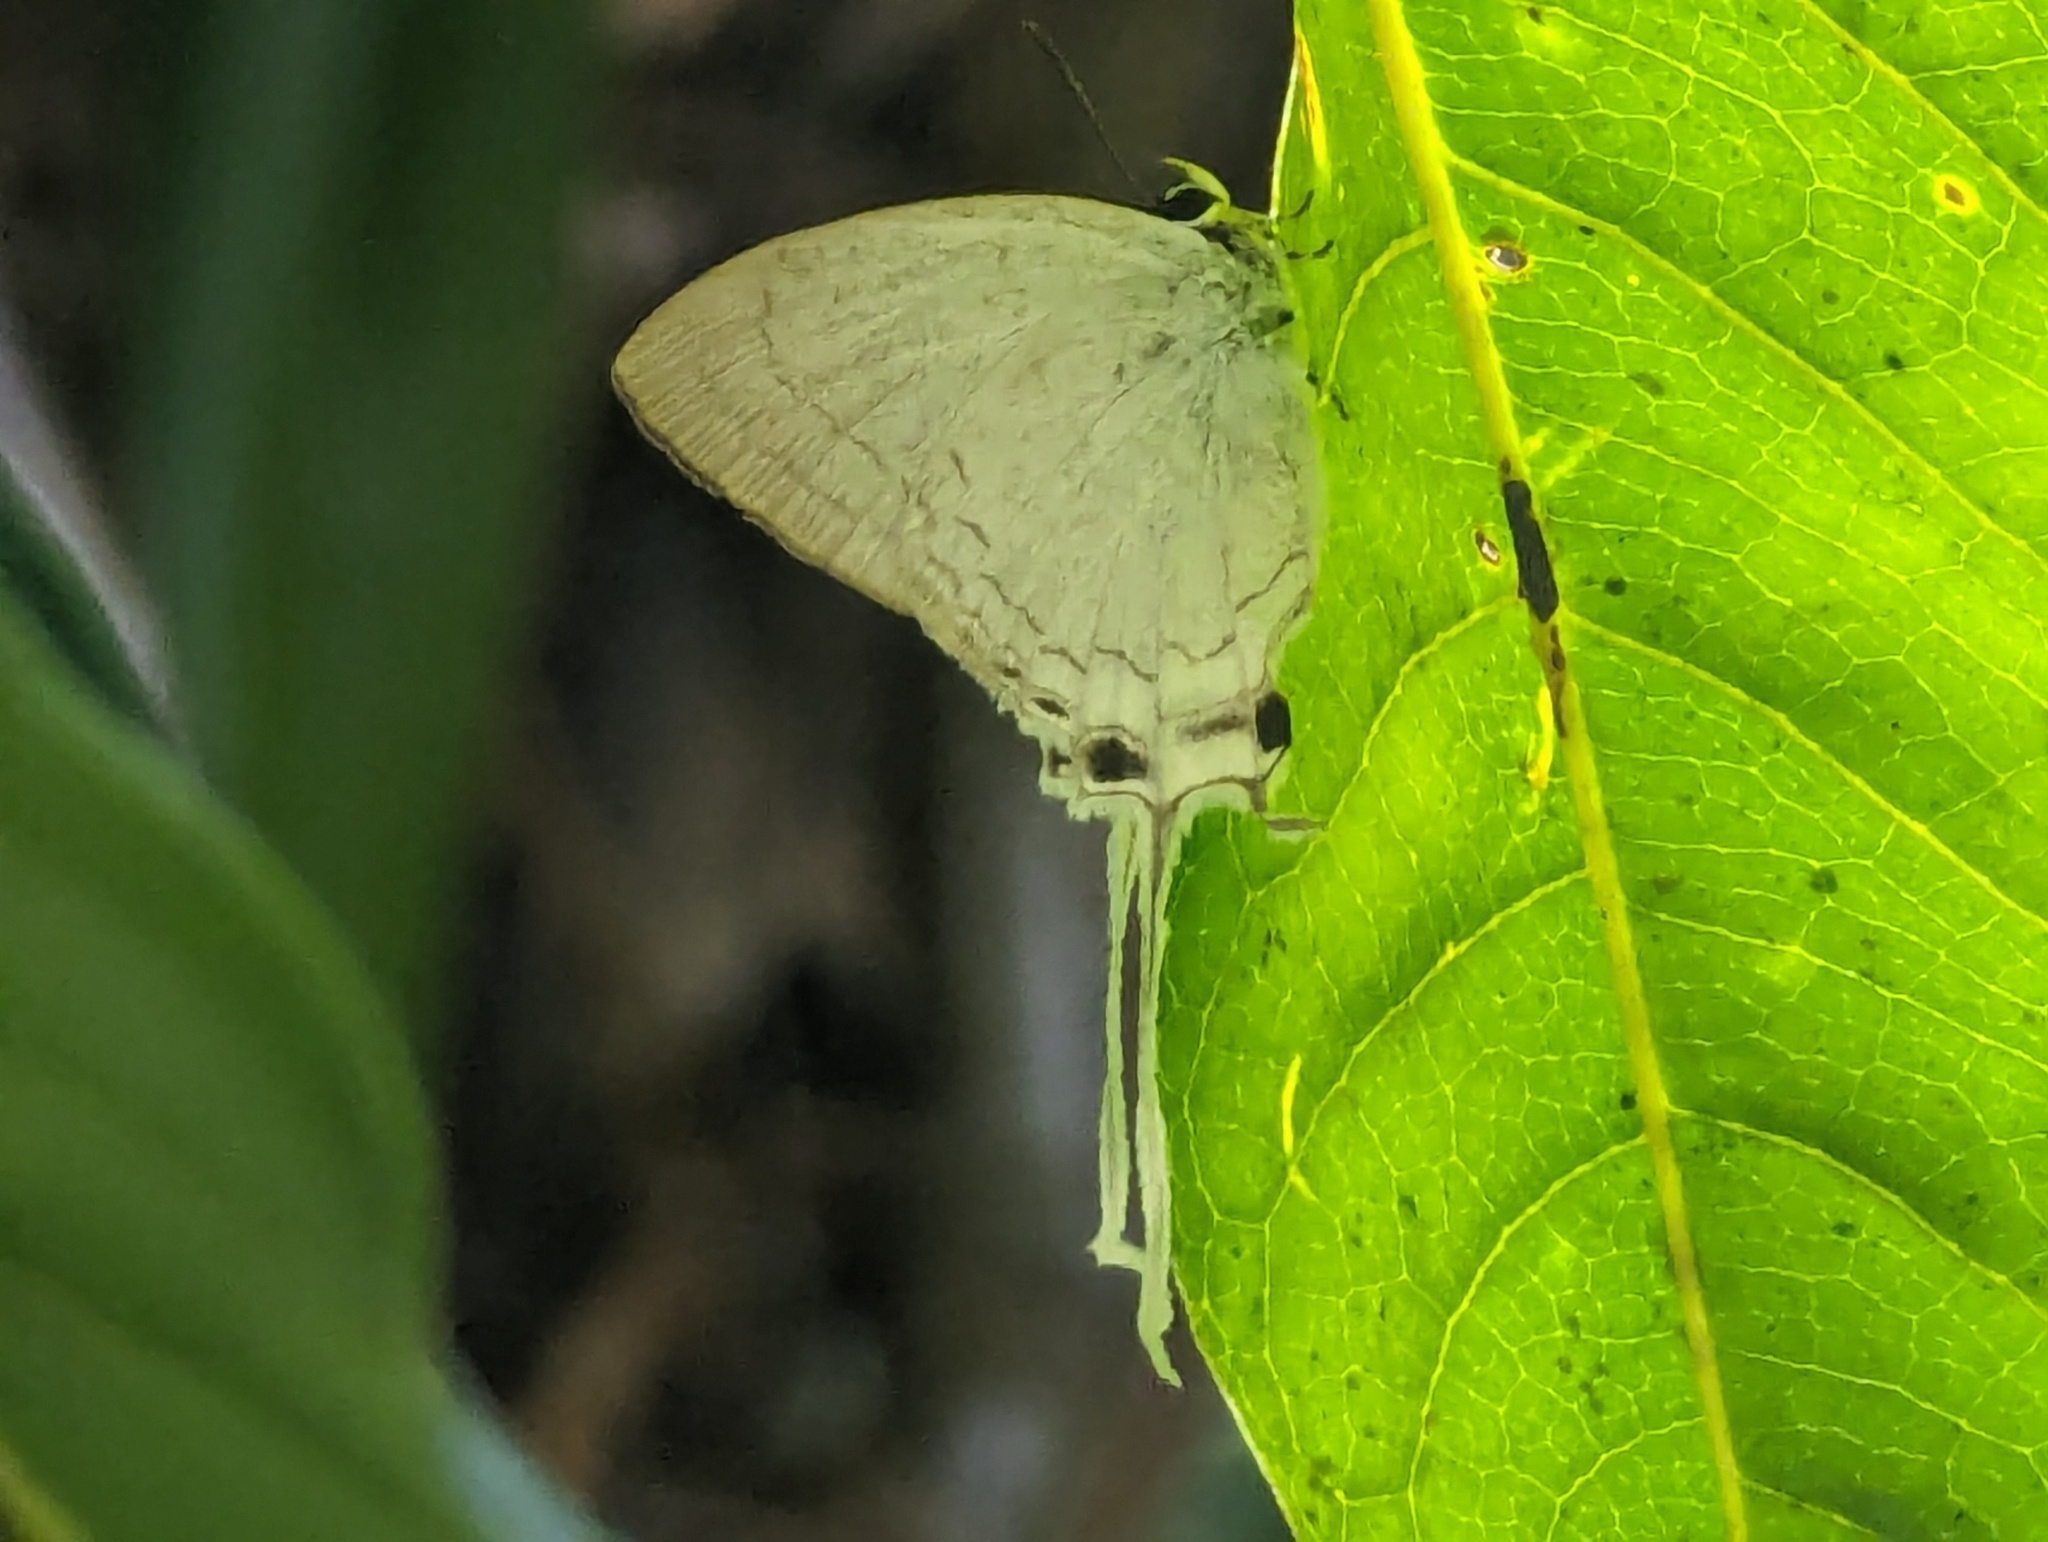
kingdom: Animalia
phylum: Arthropoda
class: Insecta
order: Lepidoptera
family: Lycaenidae
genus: Cheritra
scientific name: Cheritra freja
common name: Common imperial
